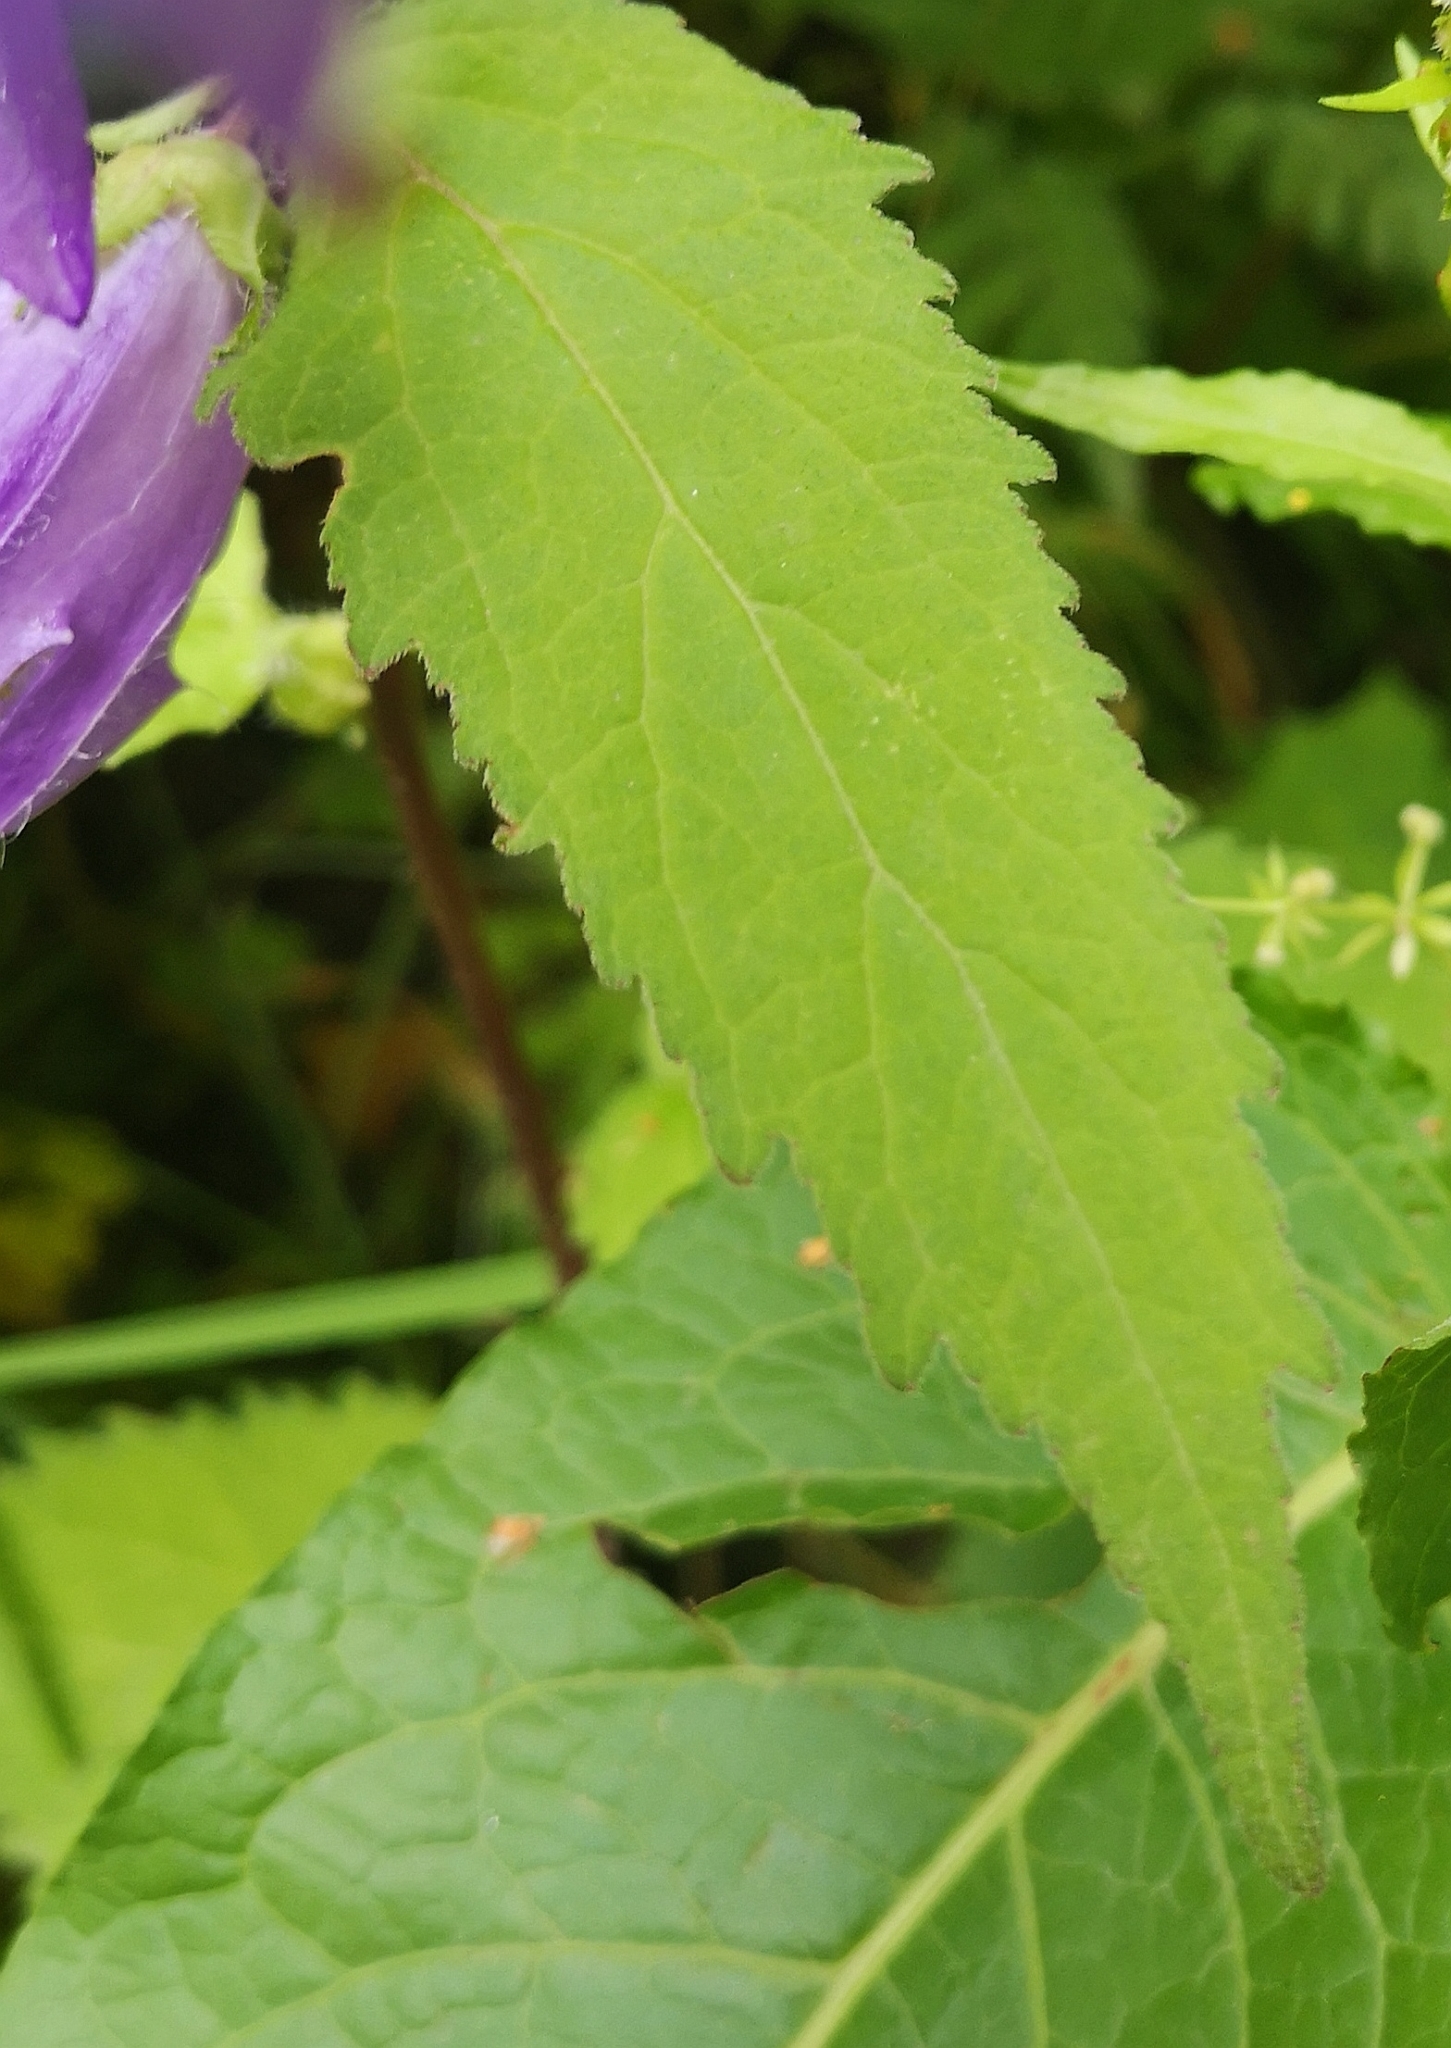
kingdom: Plantae
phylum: Tracheophyta
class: Magnoliopsida
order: Asterales
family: Campanulaceae
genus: Campanula
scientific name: Campanula trachelium
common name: Nettle-leaved bellflower
